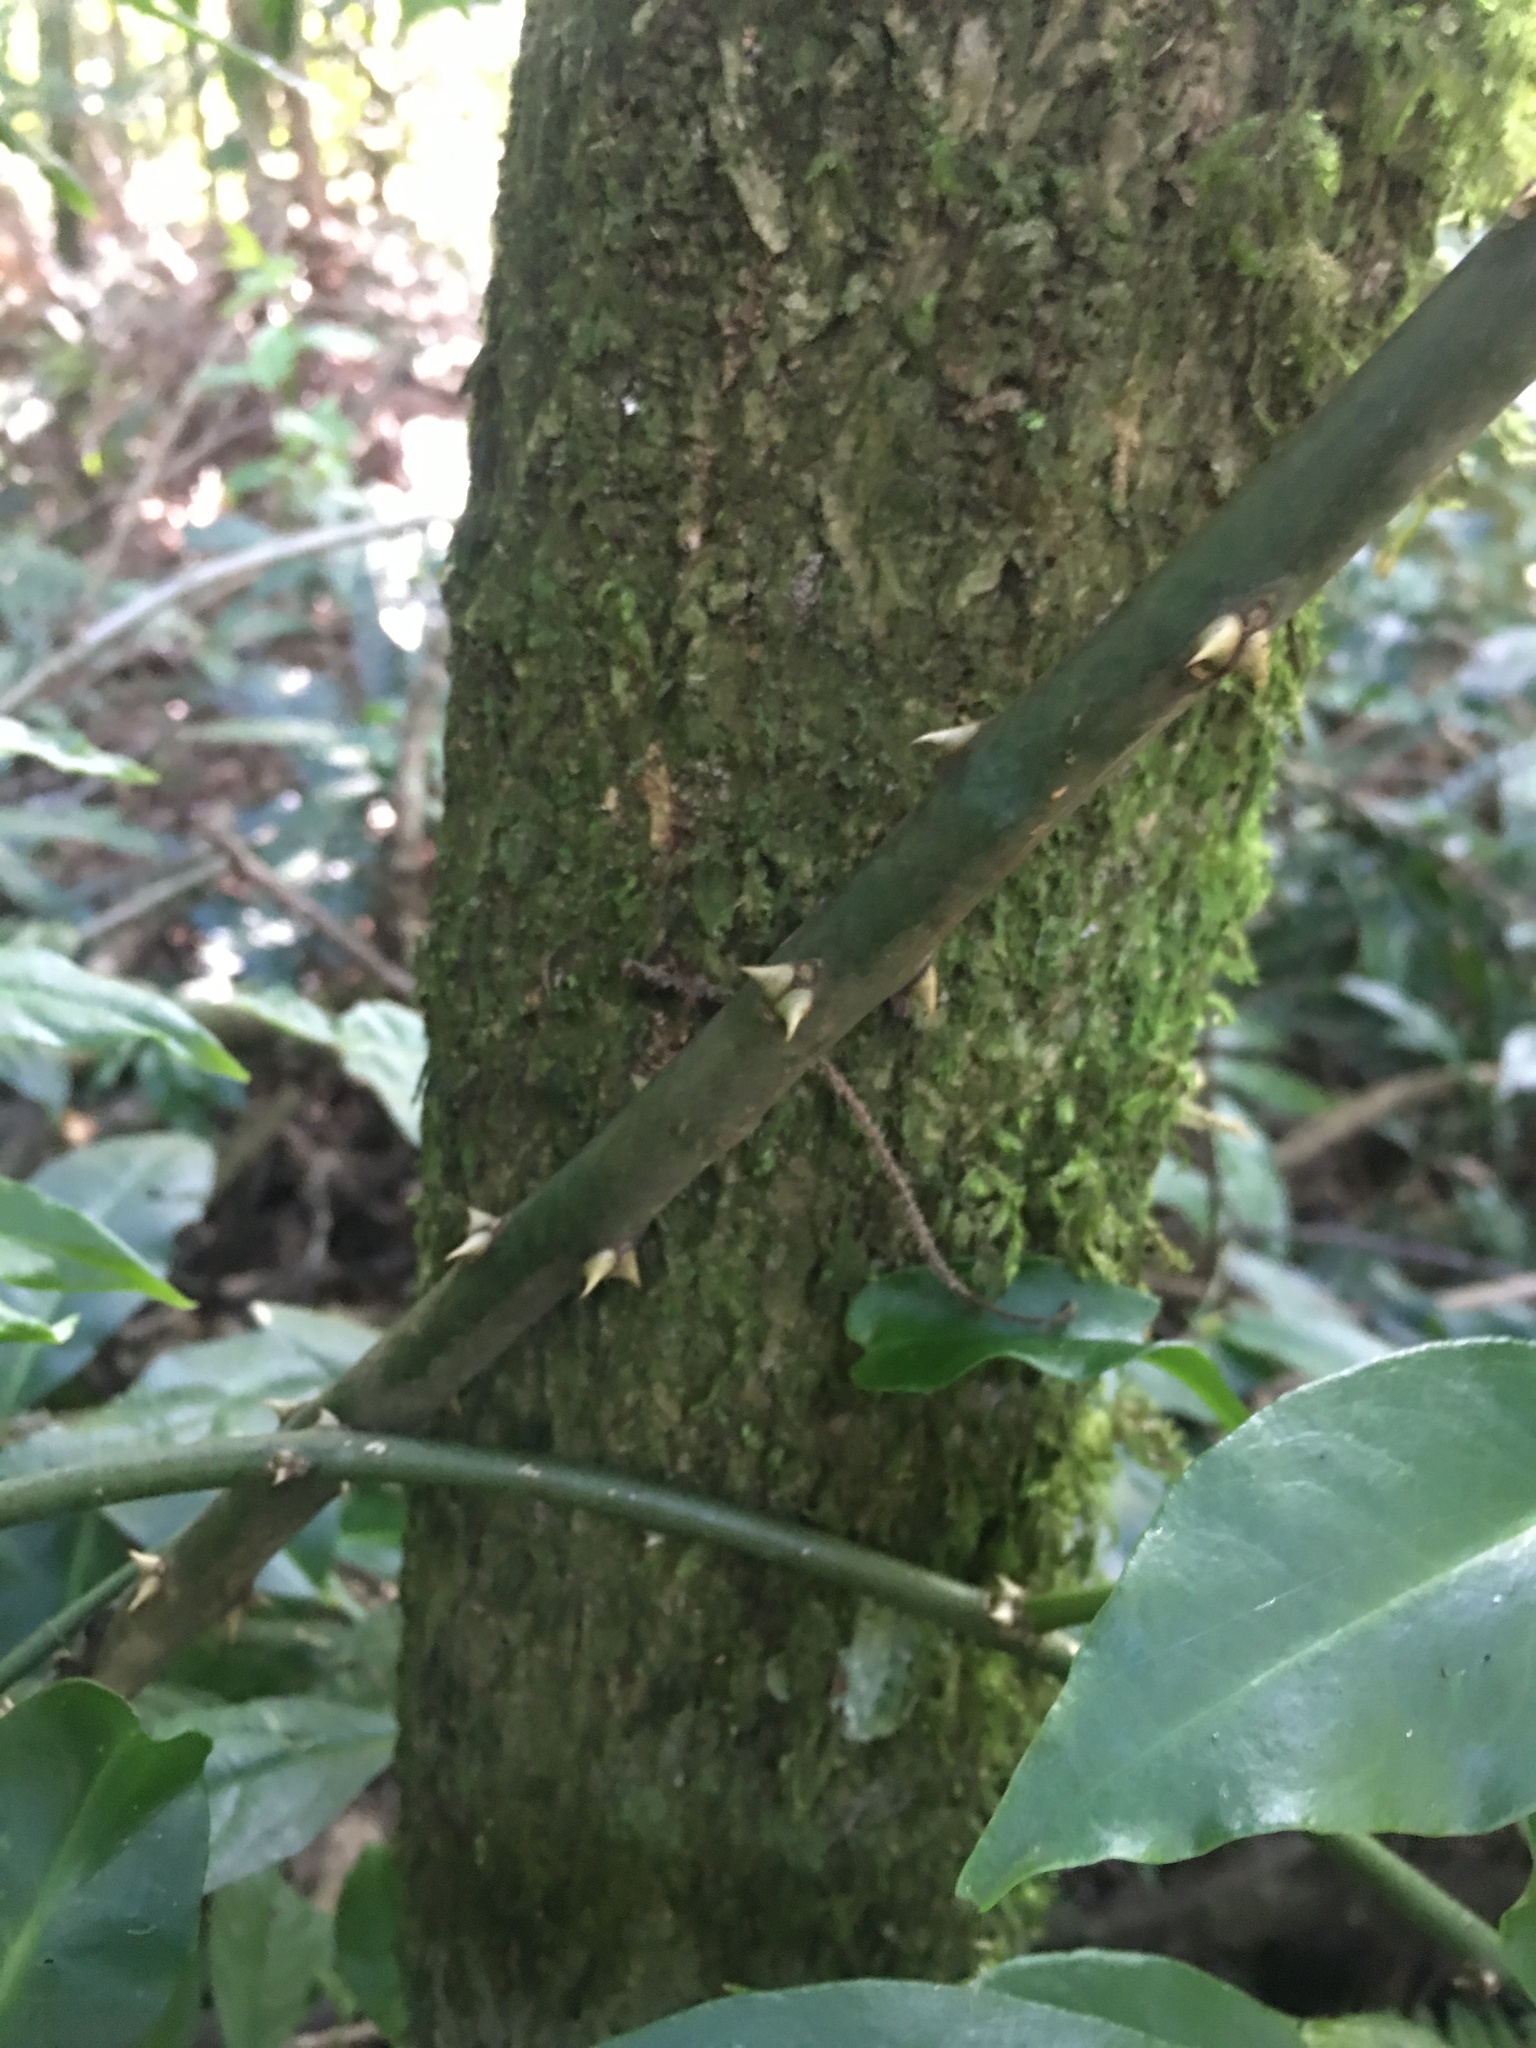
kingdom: Plantae
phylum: Tracheophyta
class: Magnoliopsida
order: Caryophyllales
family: Cactaceae
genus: Pereskia
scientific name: Pereskia aculeata
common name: Barbados gooseberry
